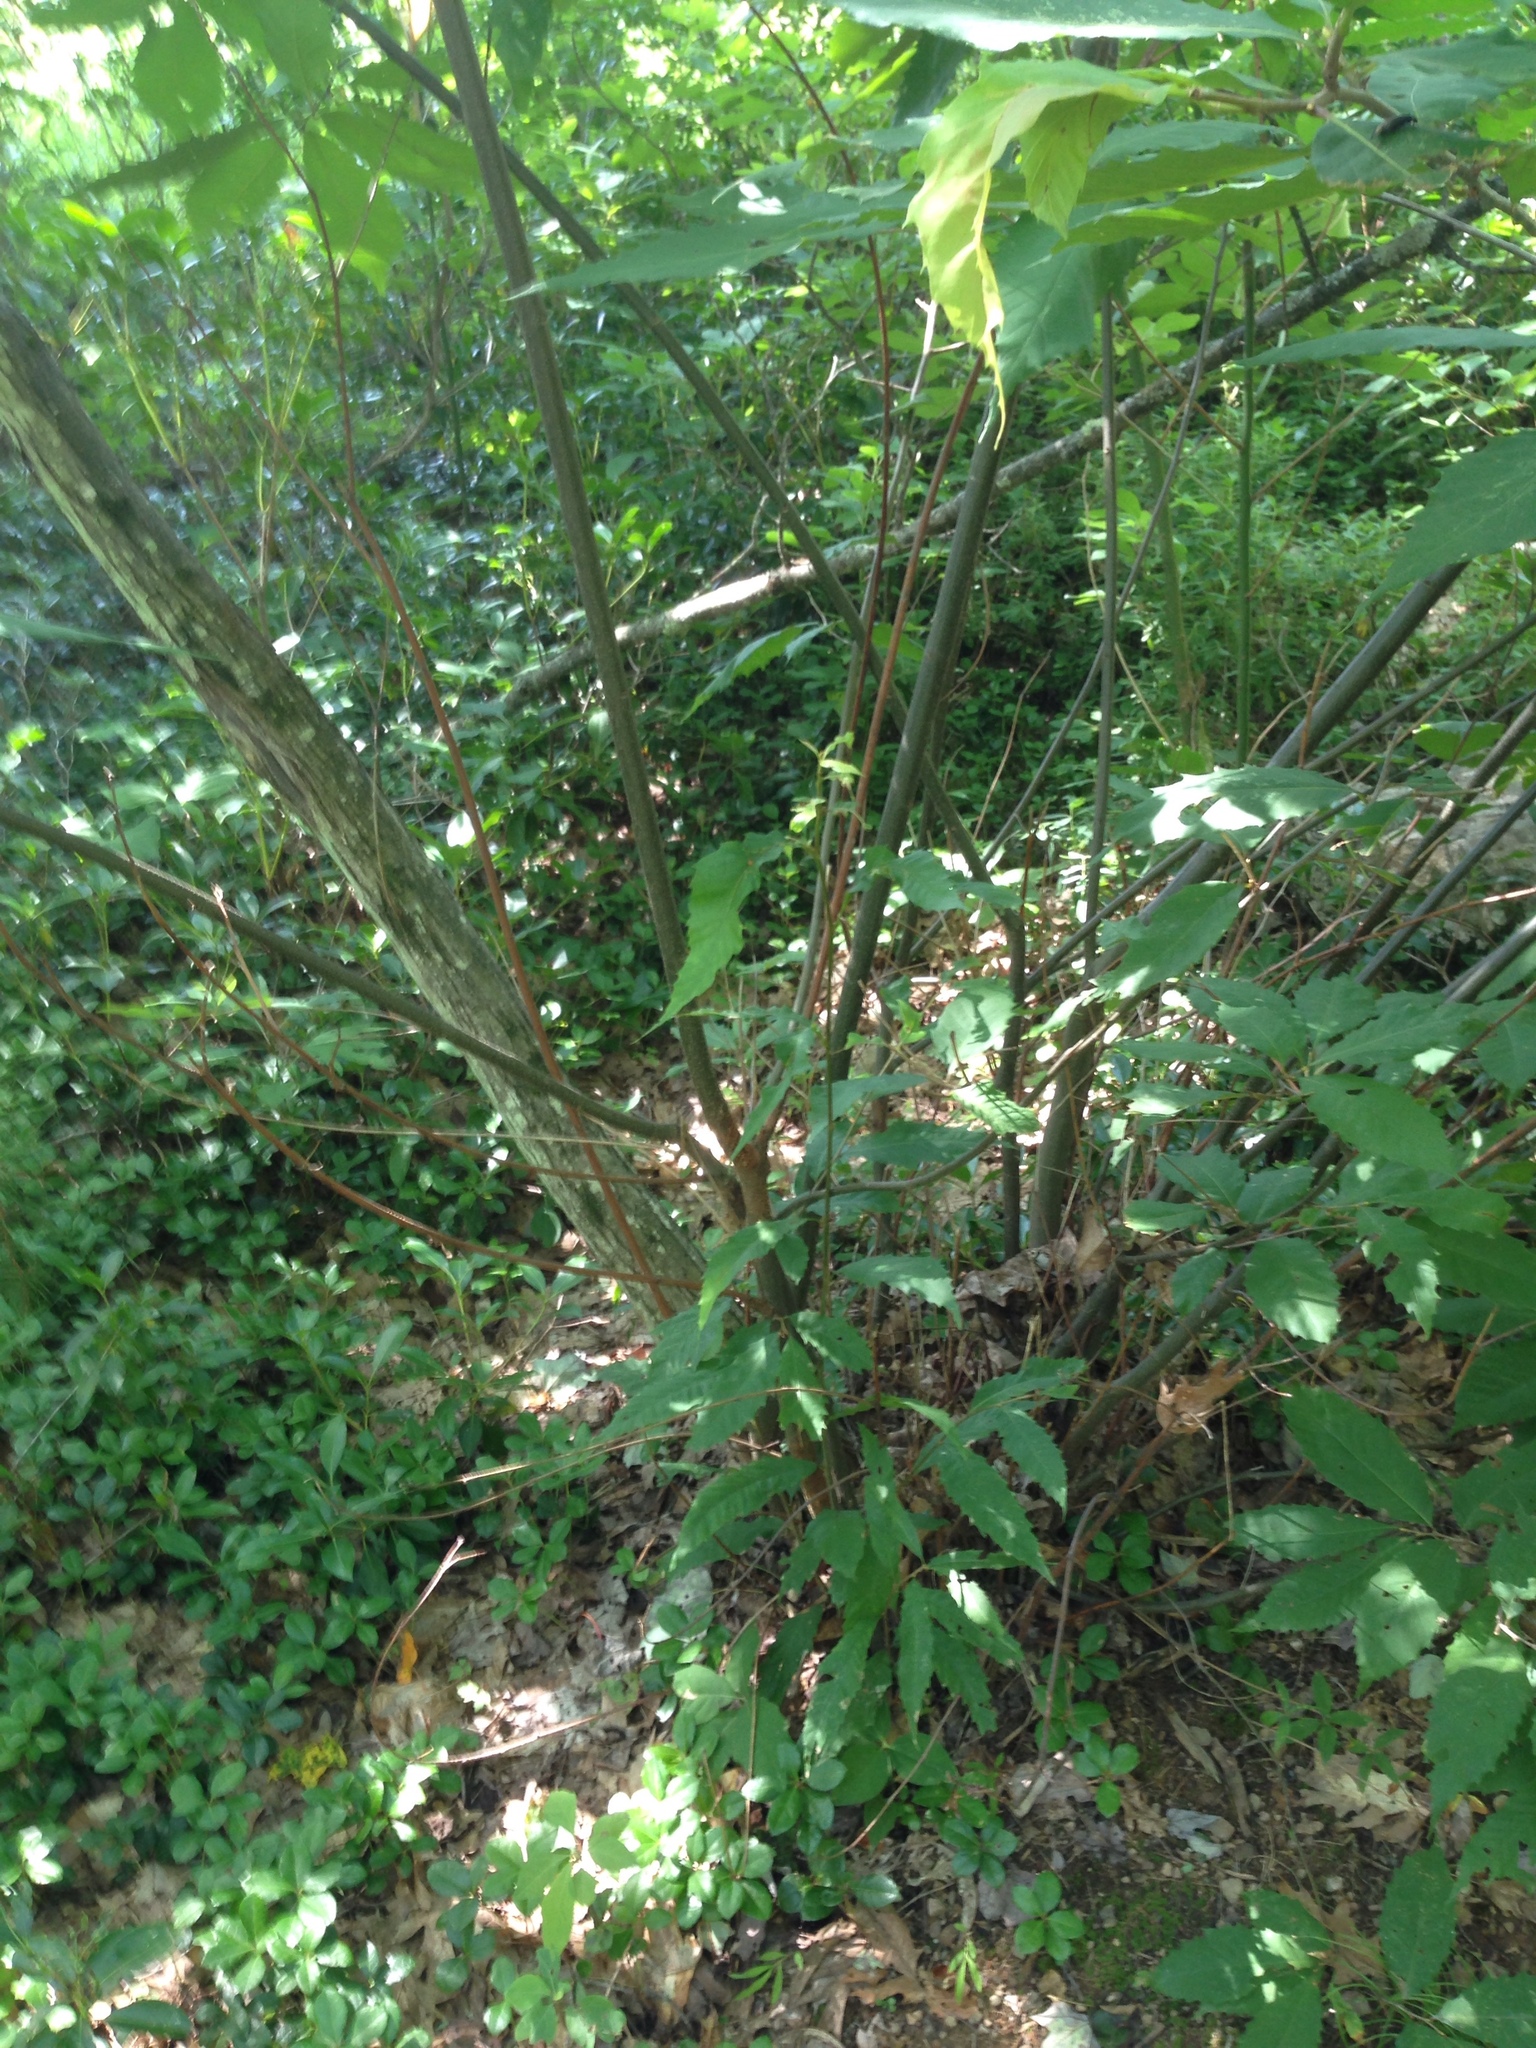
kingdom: Plantae
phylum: Tracheophyta
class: Magnoliopsida
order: Fagales
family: Fagaceae
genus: Castanea
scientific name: Castanea dentata
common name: American chestnut
